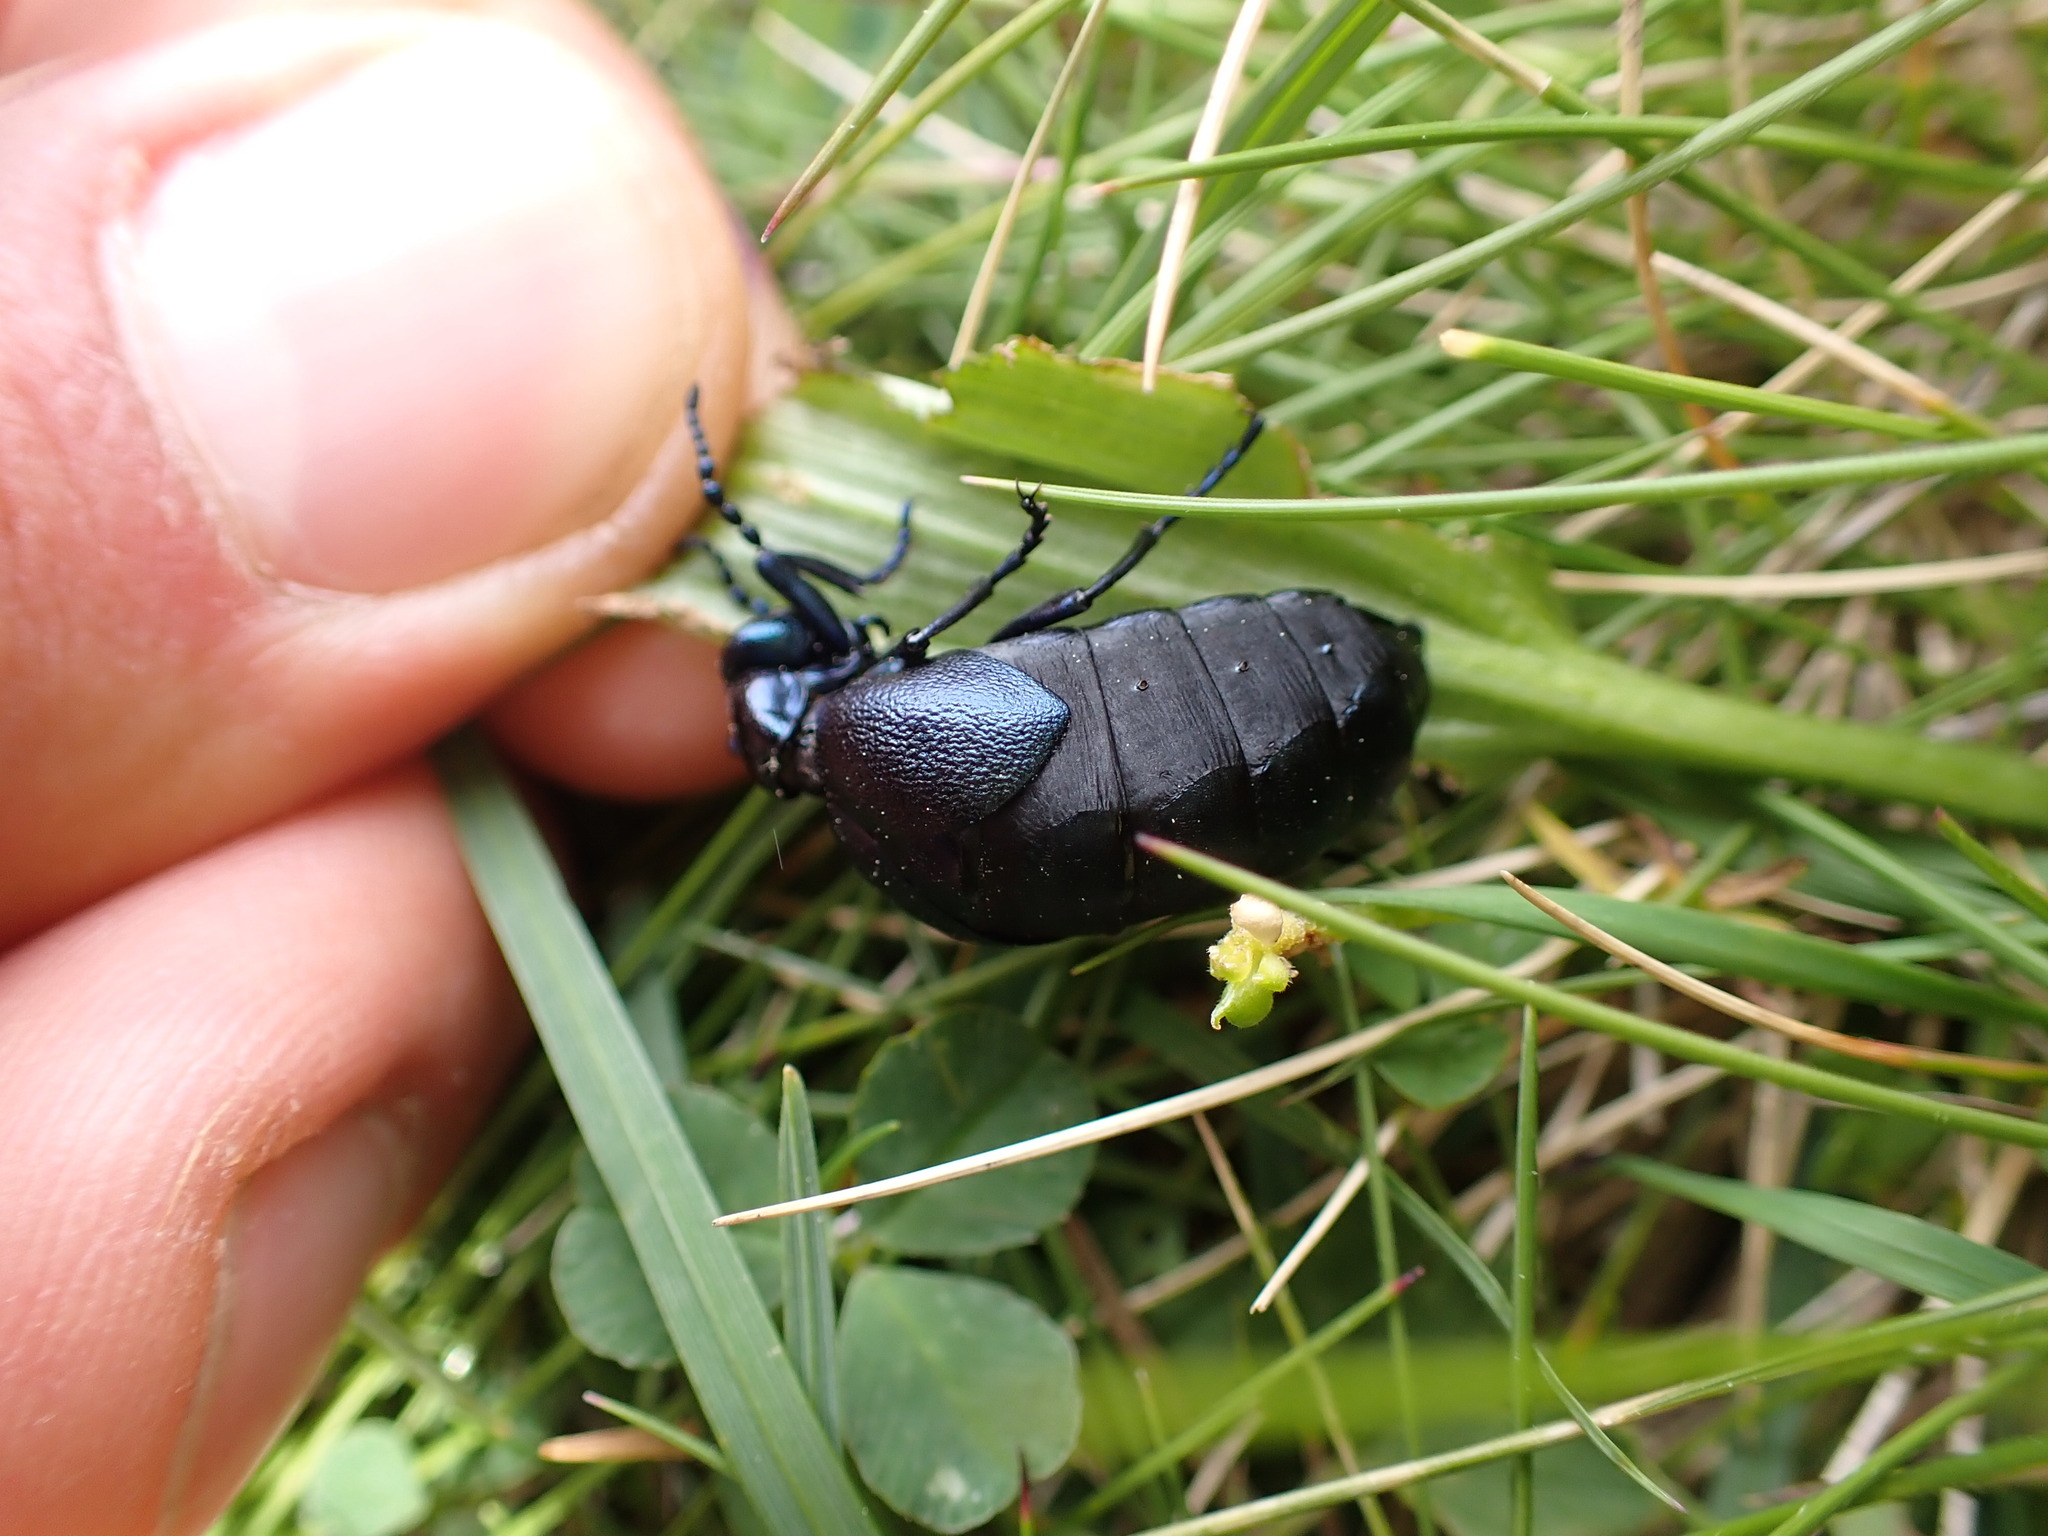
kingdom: Animalia
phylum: Arthropoda
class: Insecta
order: Coleoptera
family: Meloidae
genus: Meloe
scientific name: Meloe violaceus
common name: Violet oil-beetle
